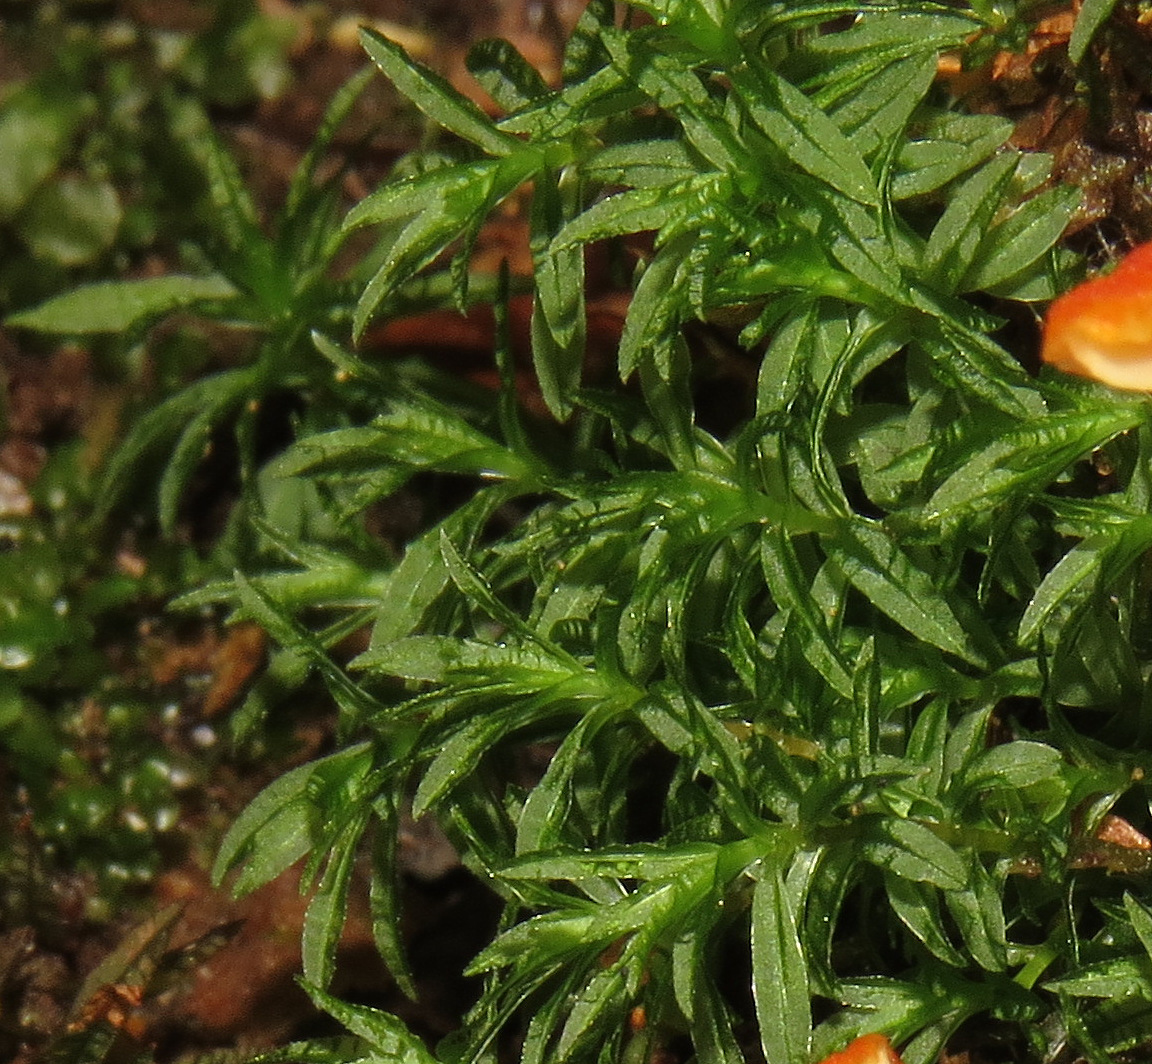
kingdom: Plantae
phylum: Bryophyta
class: Polytrichopsida
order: Polytrichales
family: Polytrichaceae
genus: Atrichum
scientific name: Atrichum
